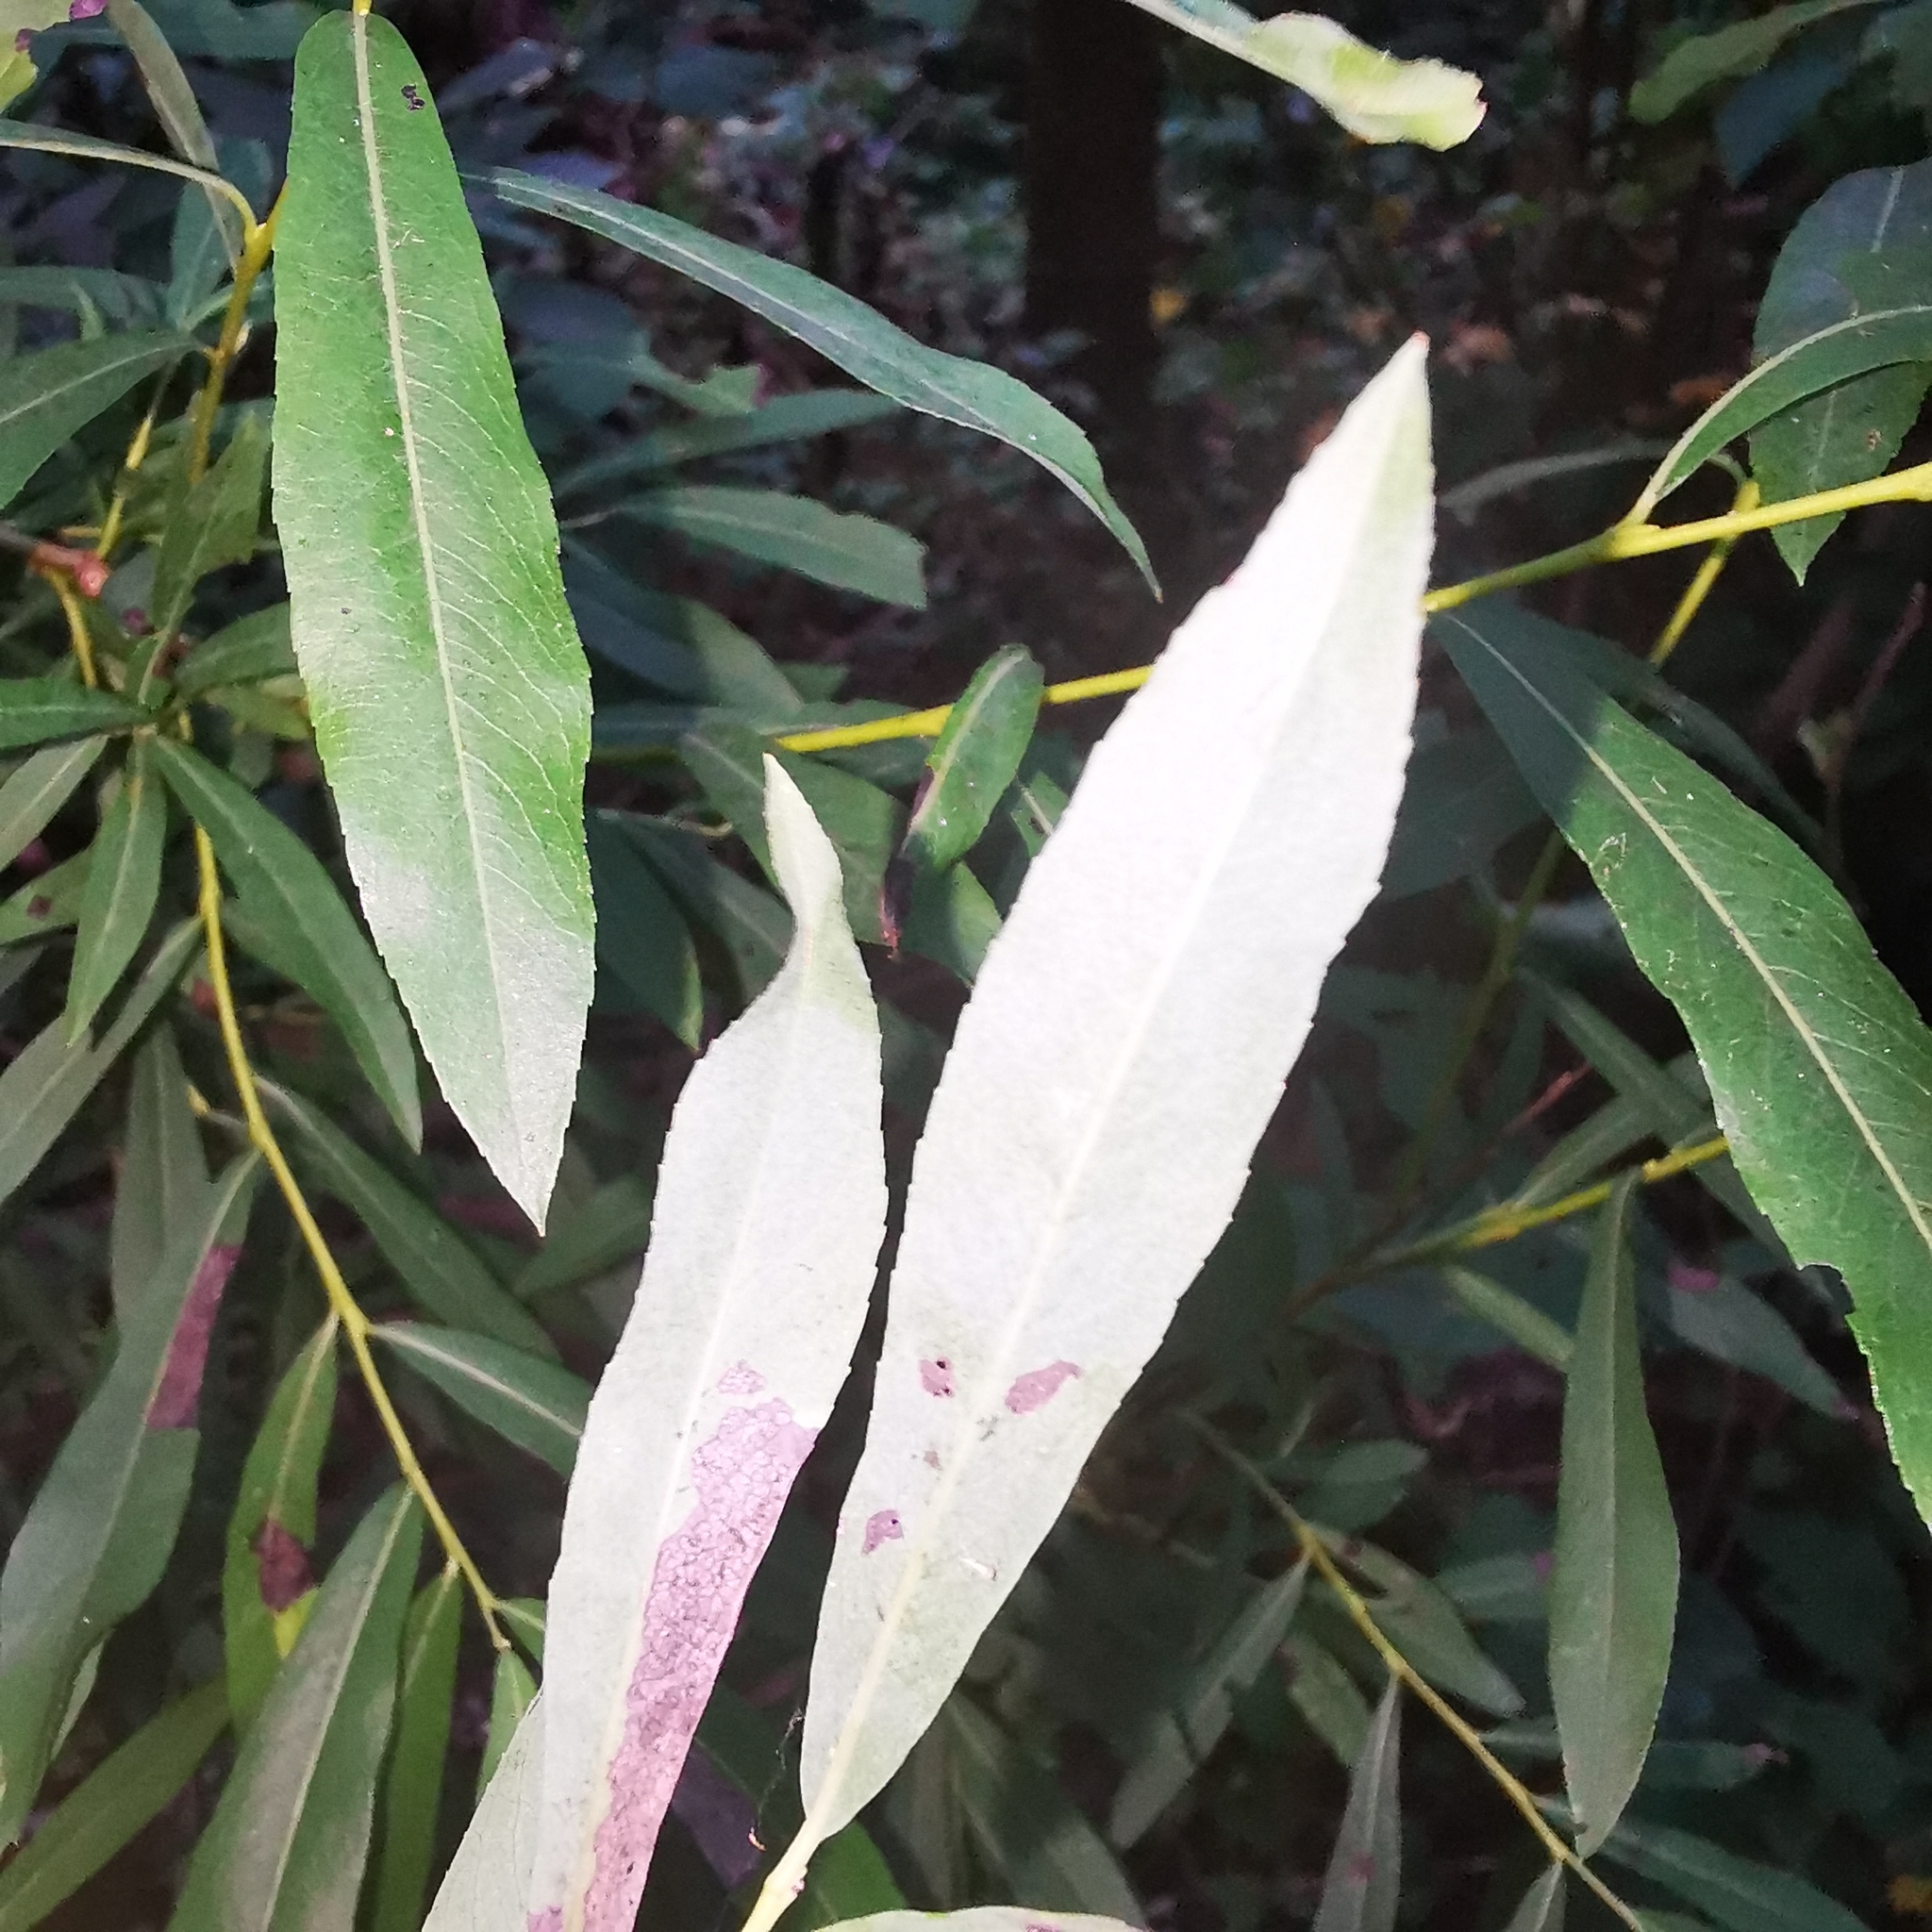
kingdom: Plantae
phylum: Tracheophyta
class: Magnoliopsida
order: Malpighiales
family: Salicaceae
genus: Salix
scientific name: Salix purpurea
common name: Purple willow
